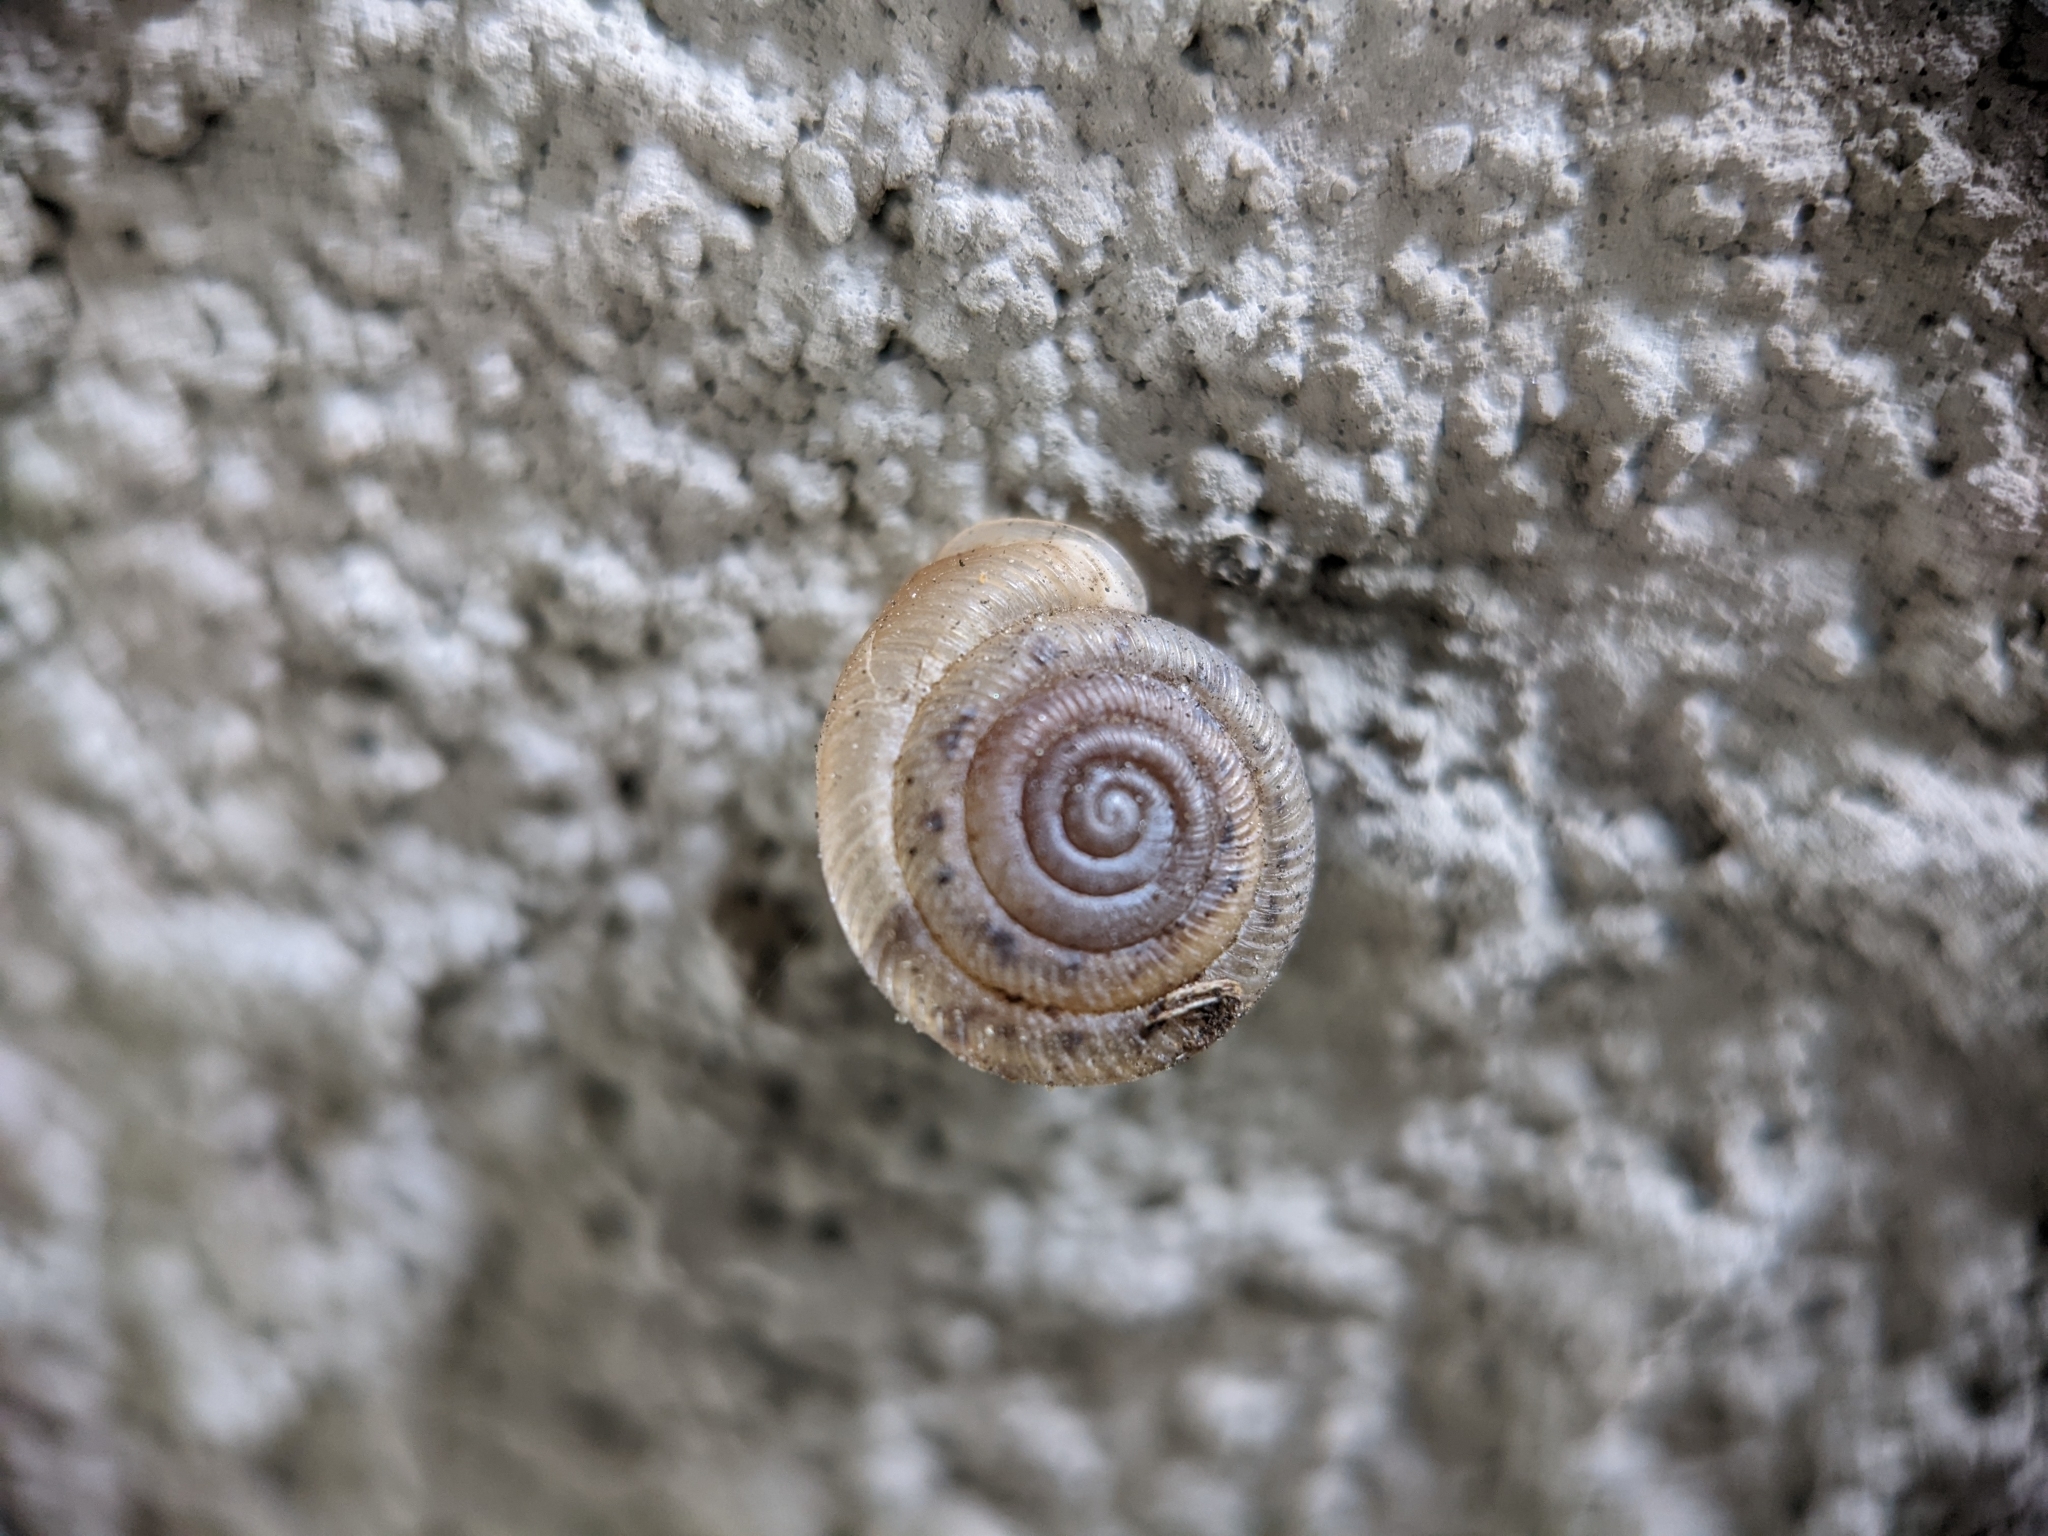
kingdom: Animalia
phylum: Mollusca
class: Gastropoda
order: Stylommatophora
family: Polygyridae
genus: Polygyra
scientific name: Polygyra cereolus
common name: Southern flatcone snail
